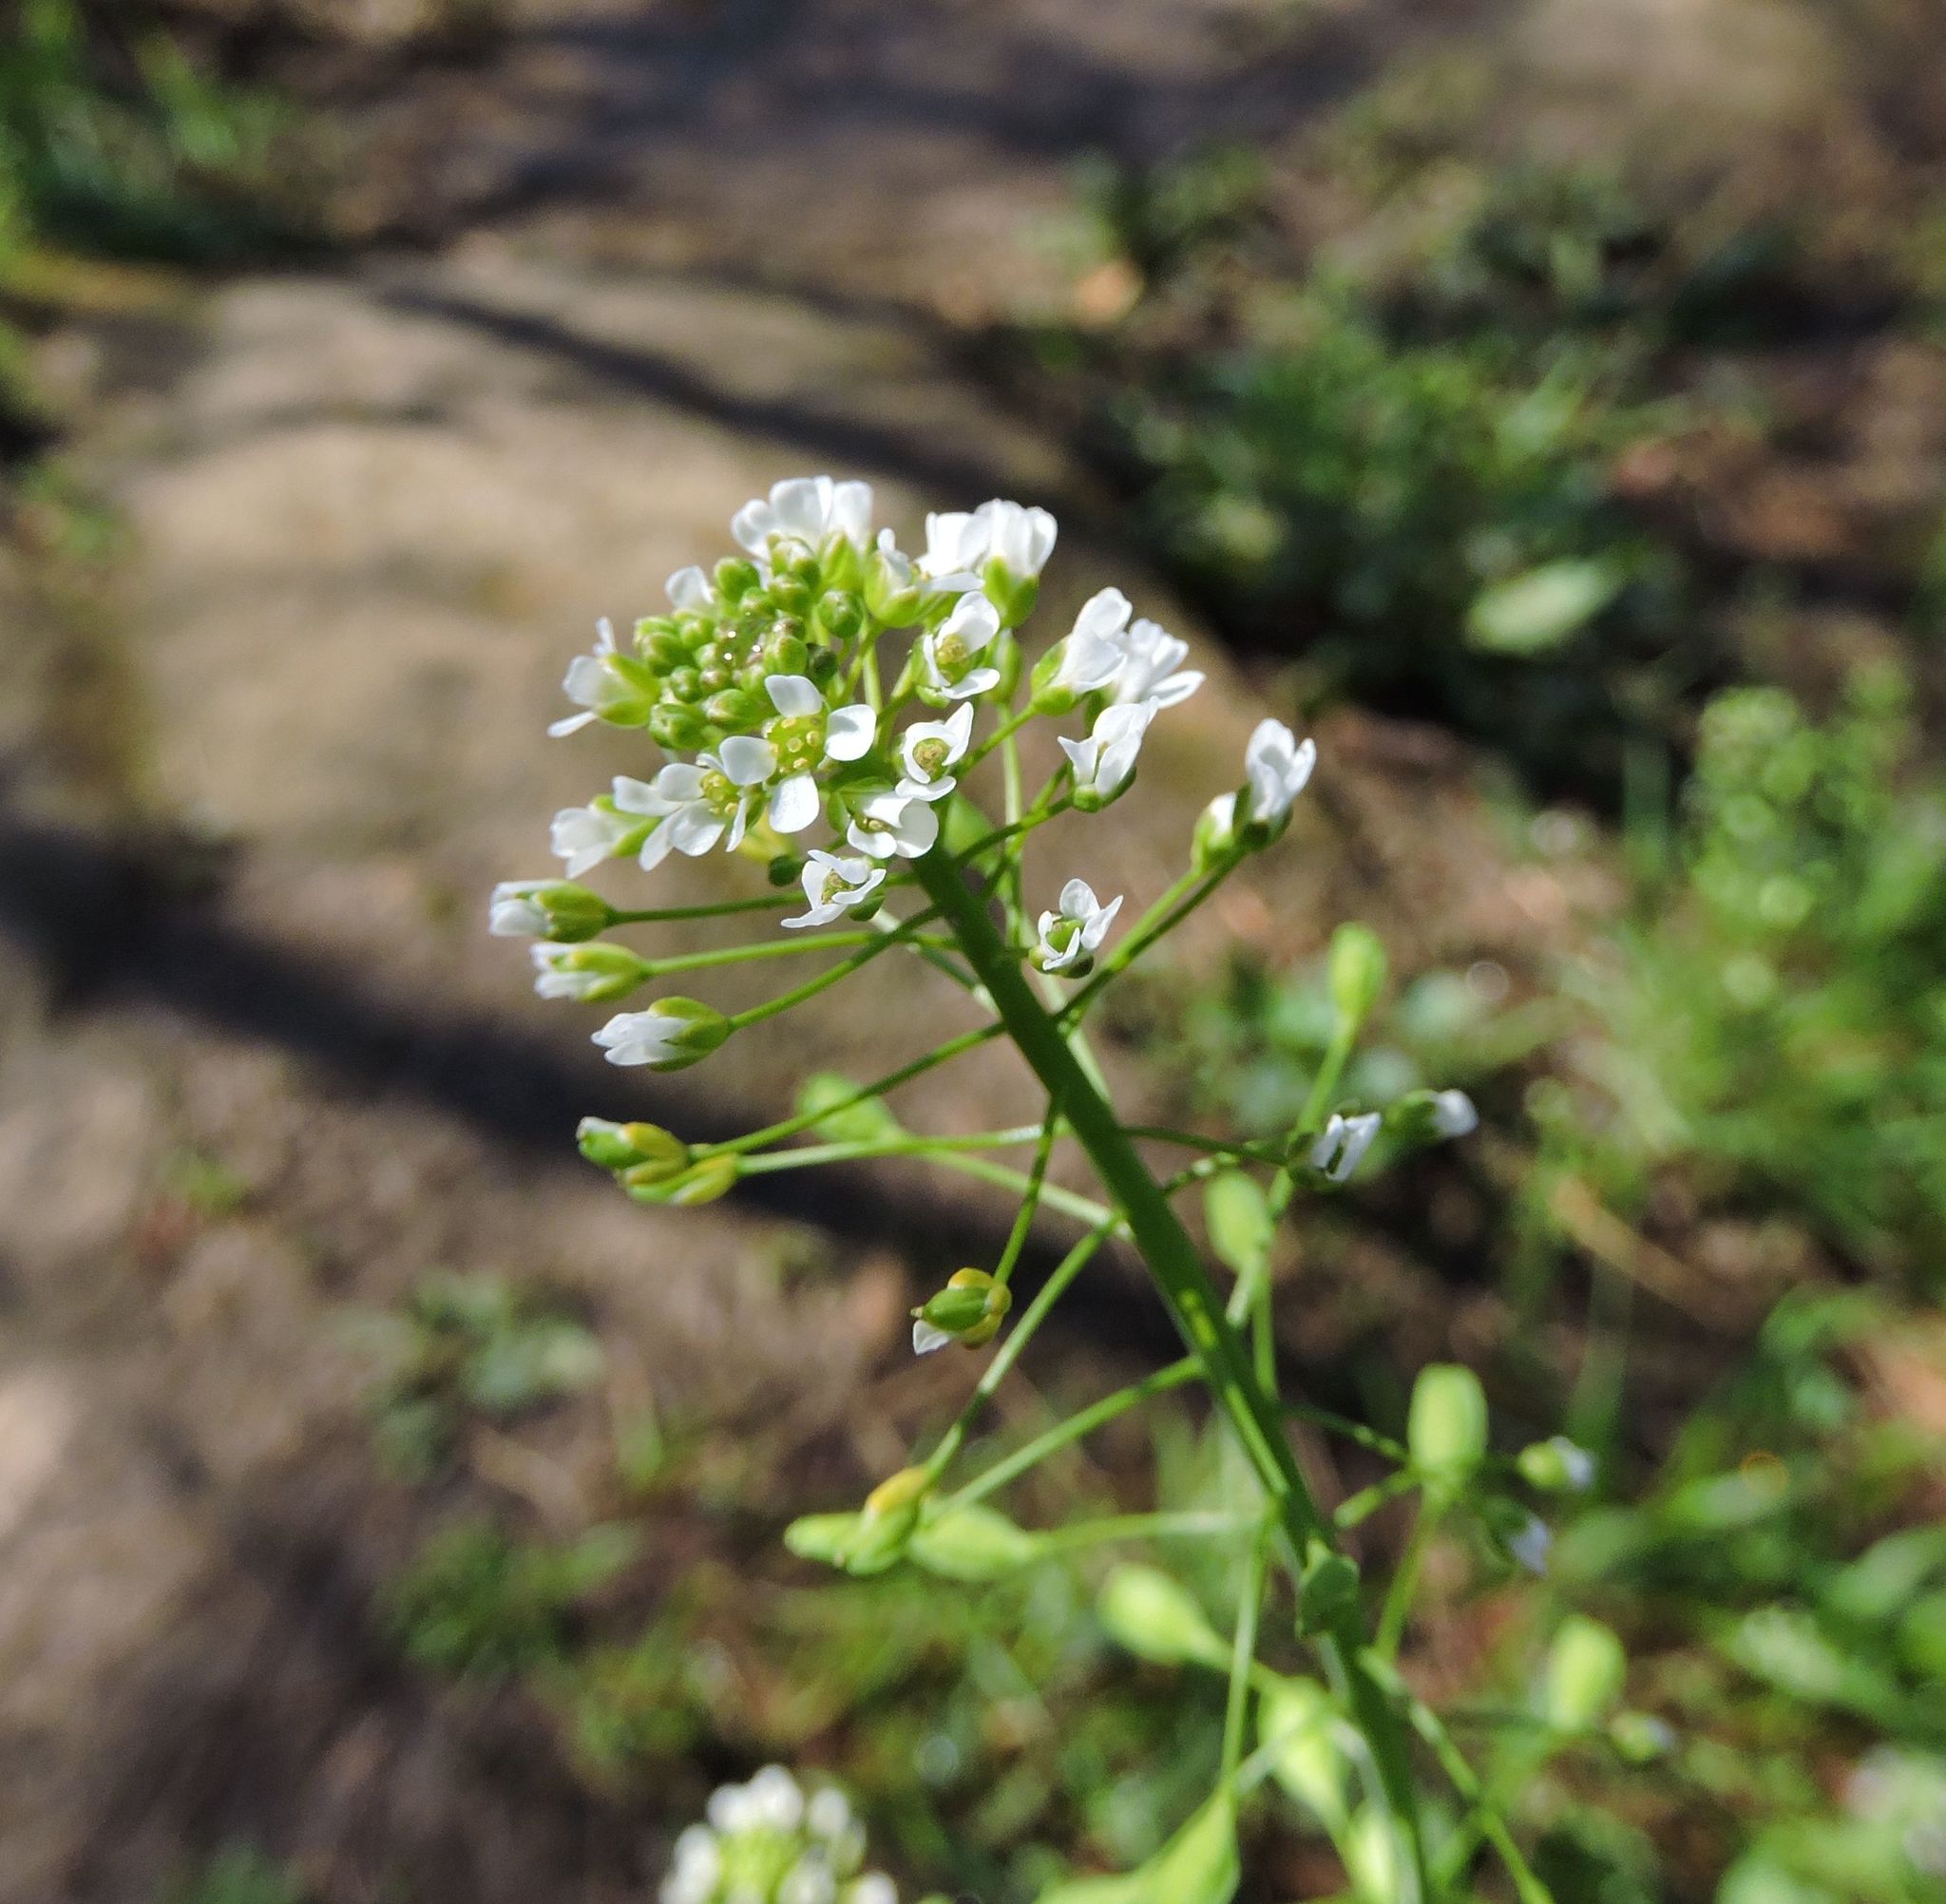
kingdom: Plantae
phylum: Tracheophyta
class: Magnoliopsida
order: Brassicales
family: Brassicaceae
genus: Lepidium
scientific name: Lepidium virginicum
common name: Least pepperwort
